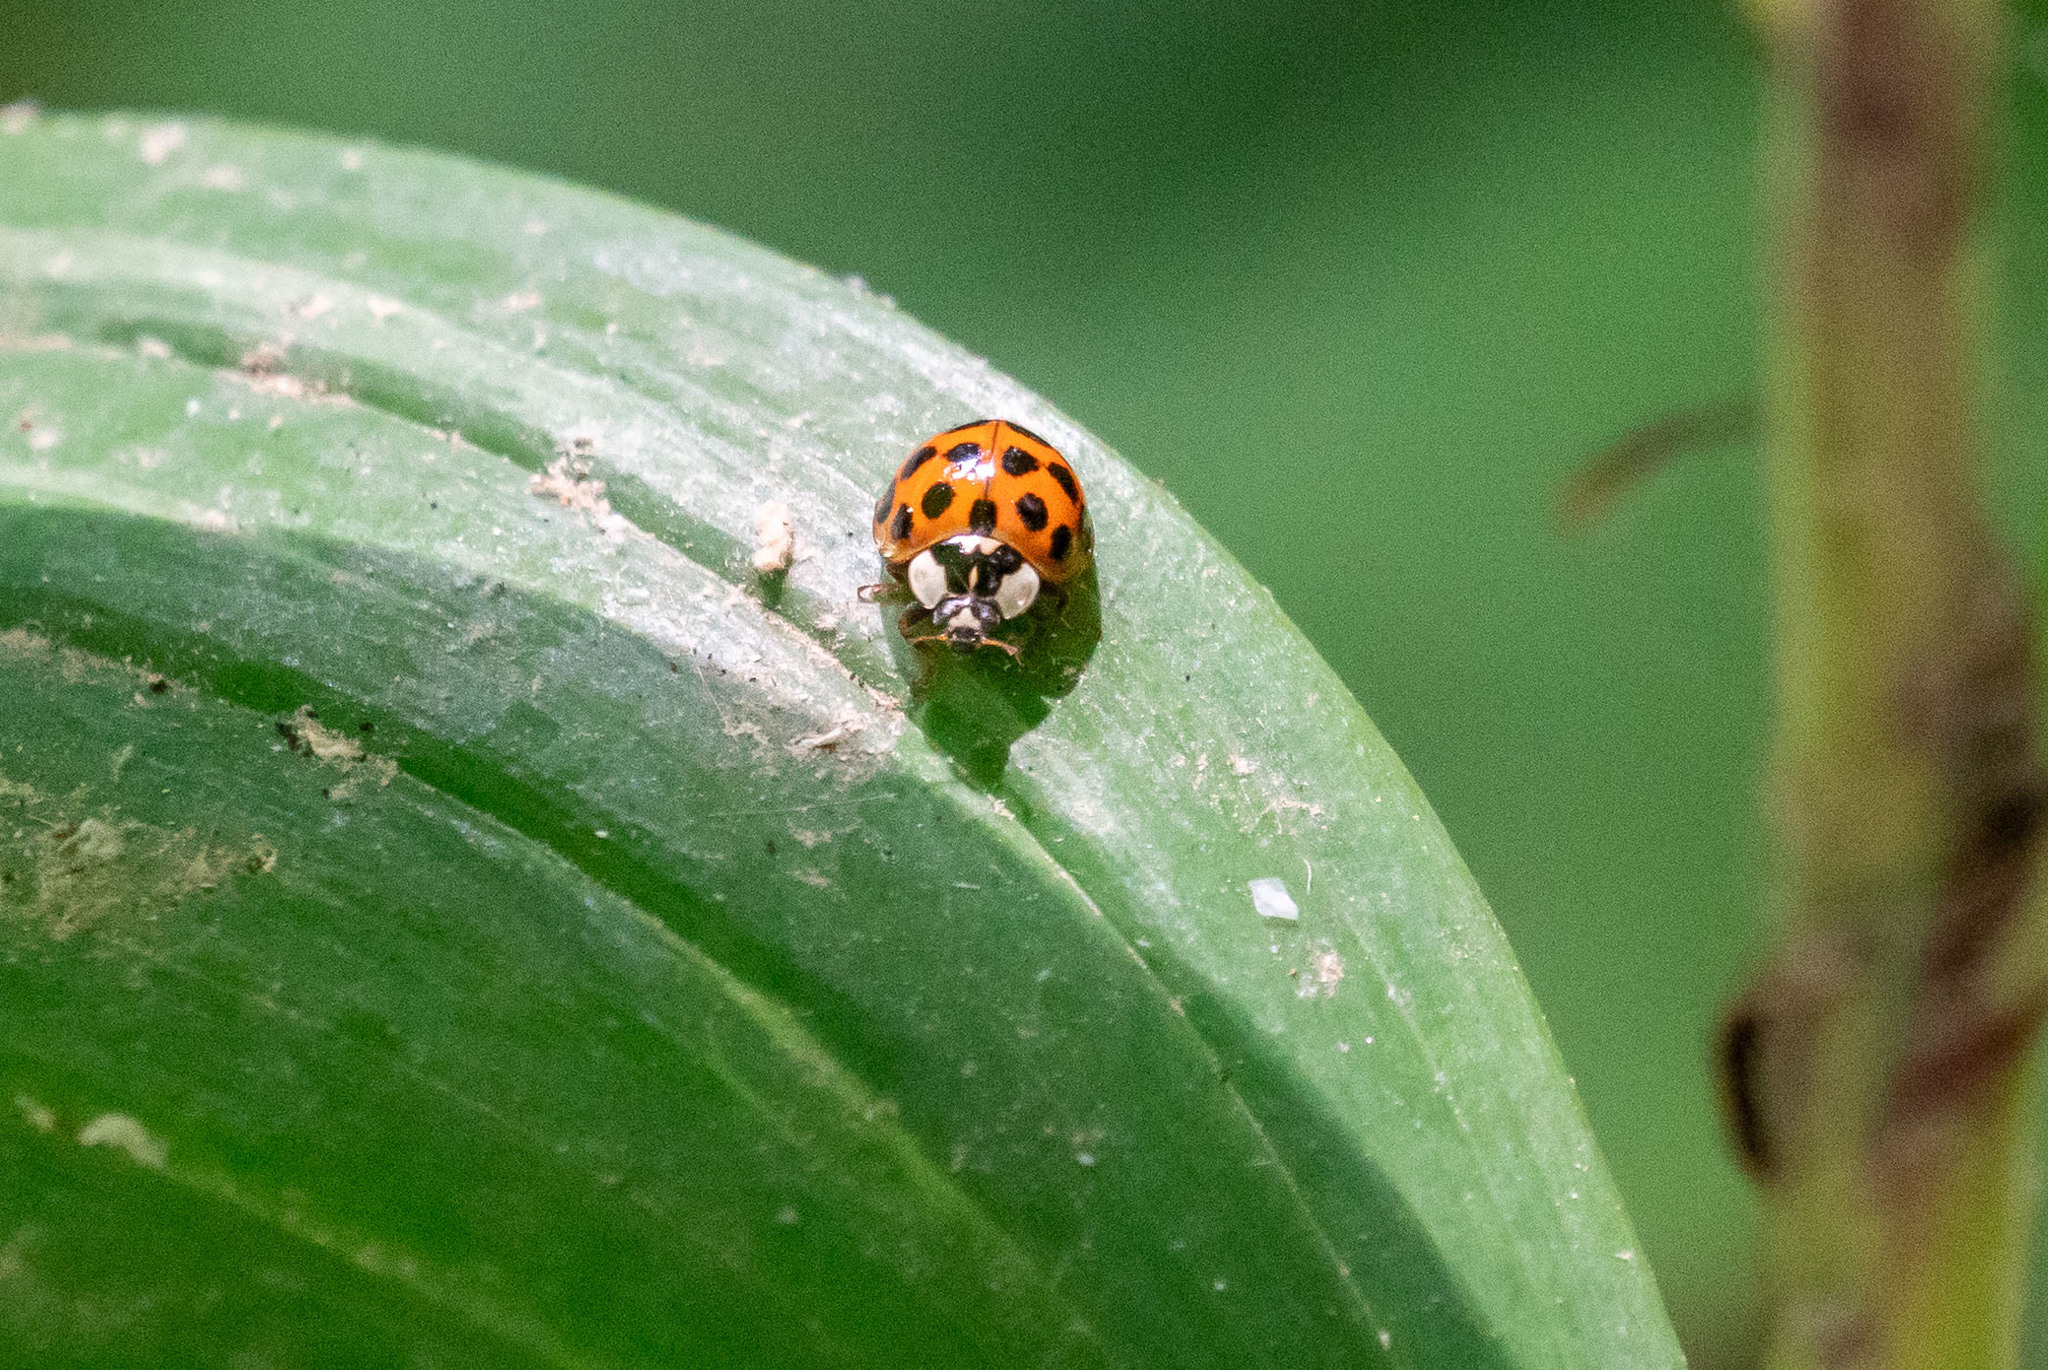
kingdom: Animalia
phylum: Arthropoda
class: Insecta
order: Coleoptera
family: Coccinellidae
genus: Harmonia
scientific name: Harmonia axyridis
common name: Harlequin ladybird
